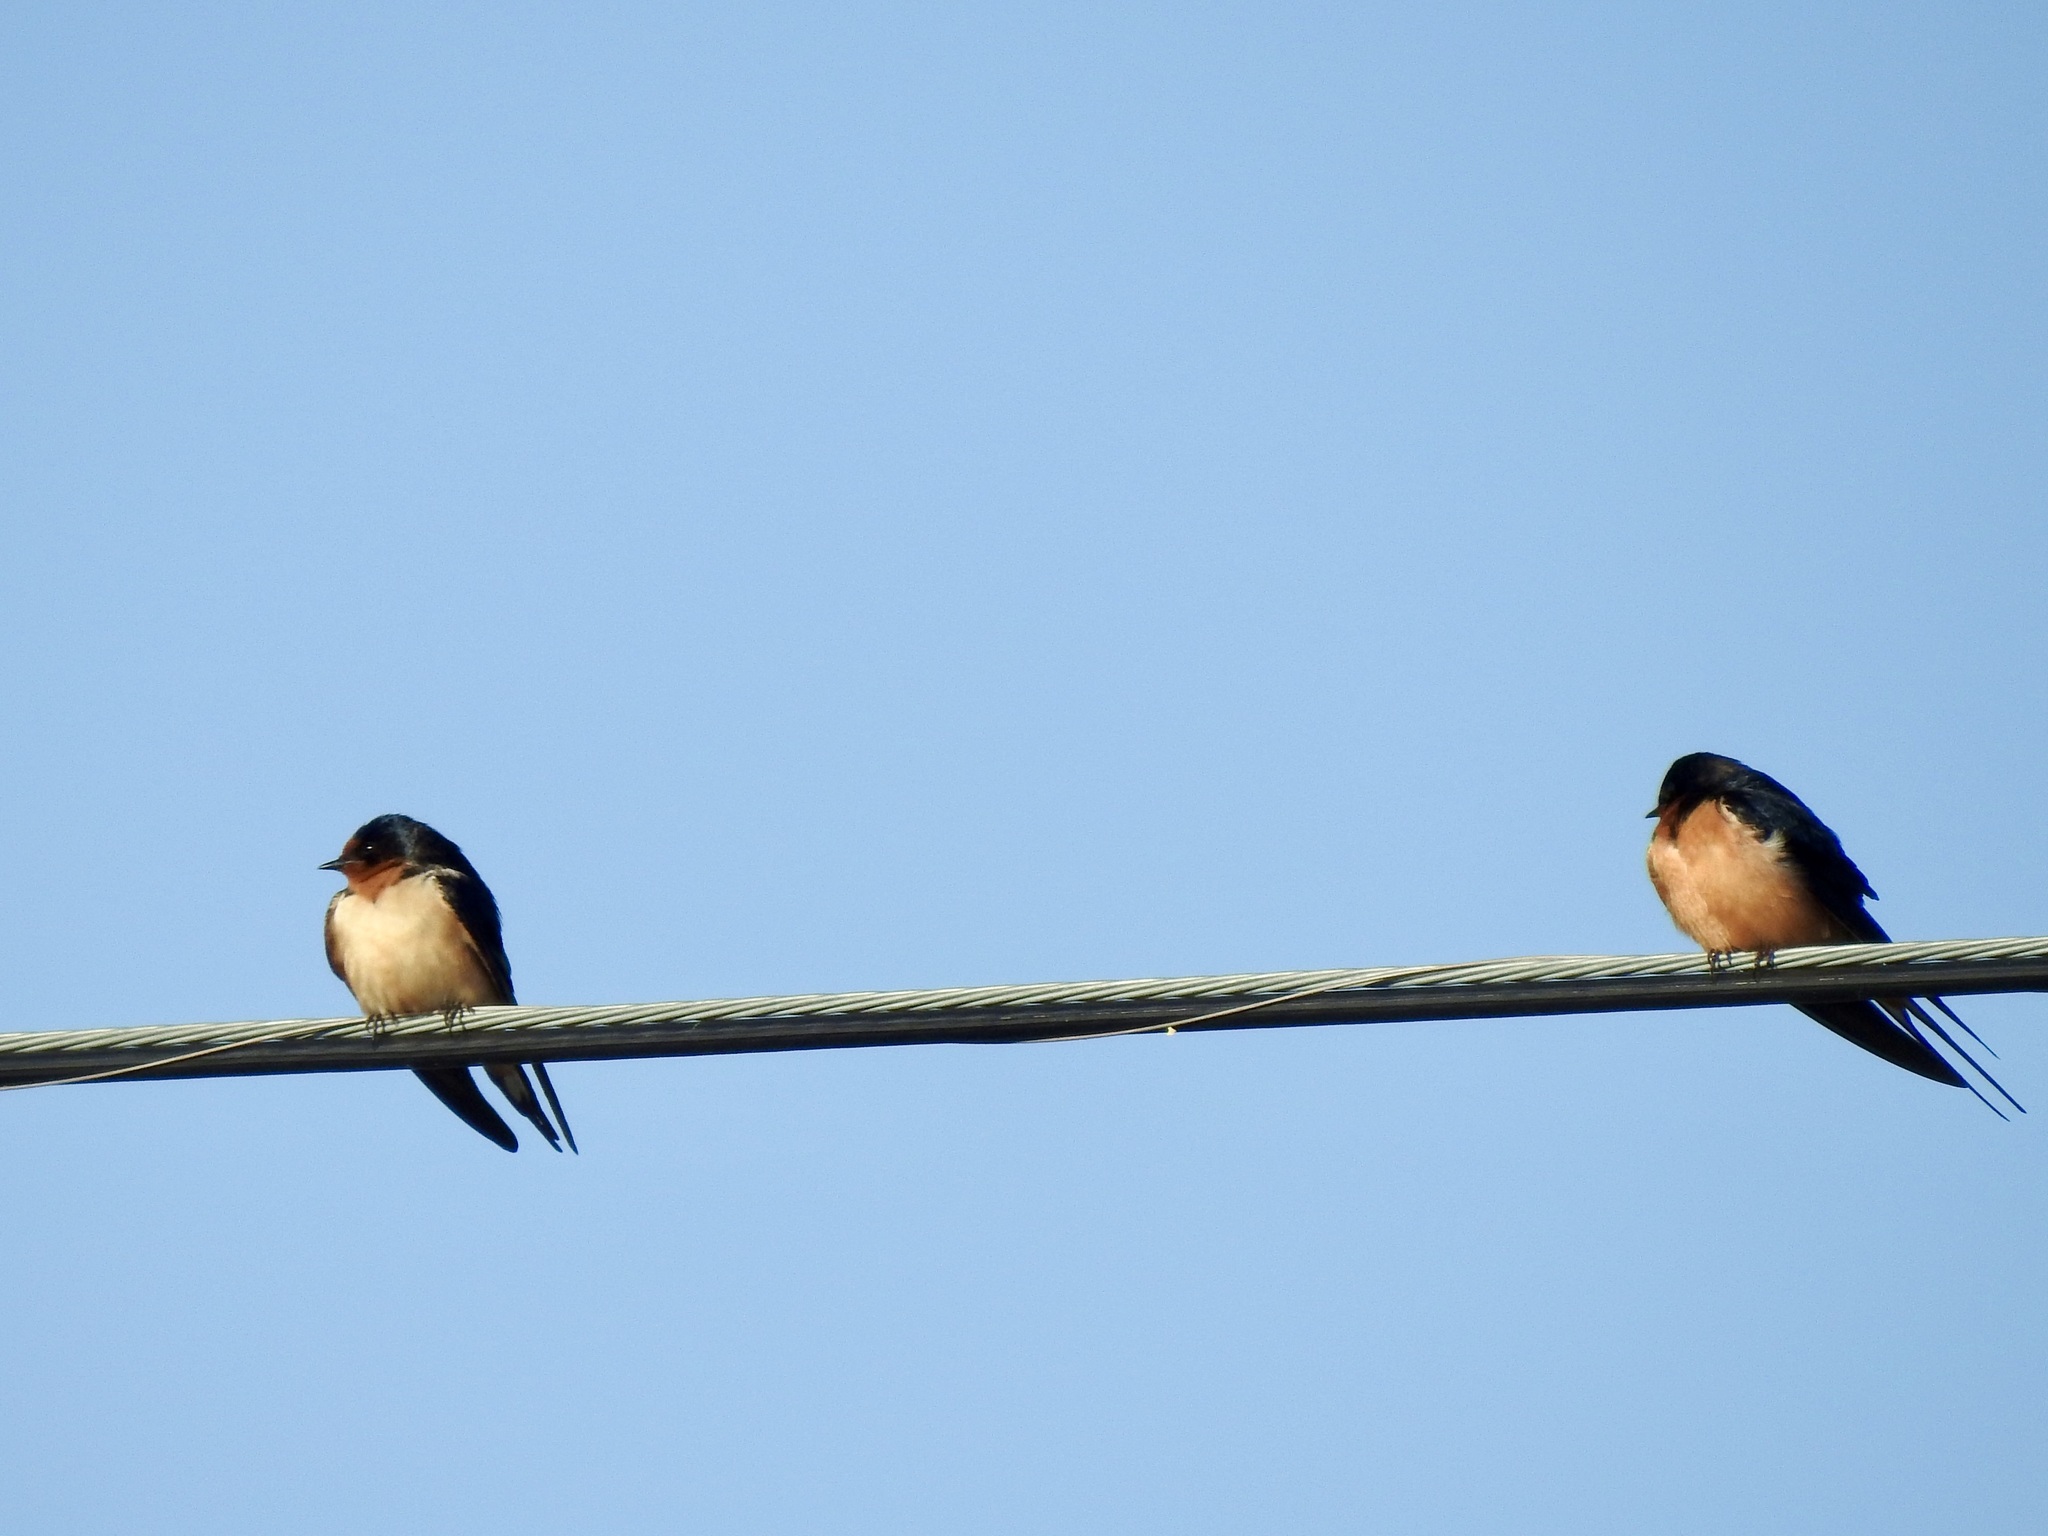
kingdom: Animalia
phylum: Chordata
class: Aves
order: Passeriformes
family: Hirundinidae
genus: Hirundo
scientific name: Hirundo rustica
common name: Barn swallow
